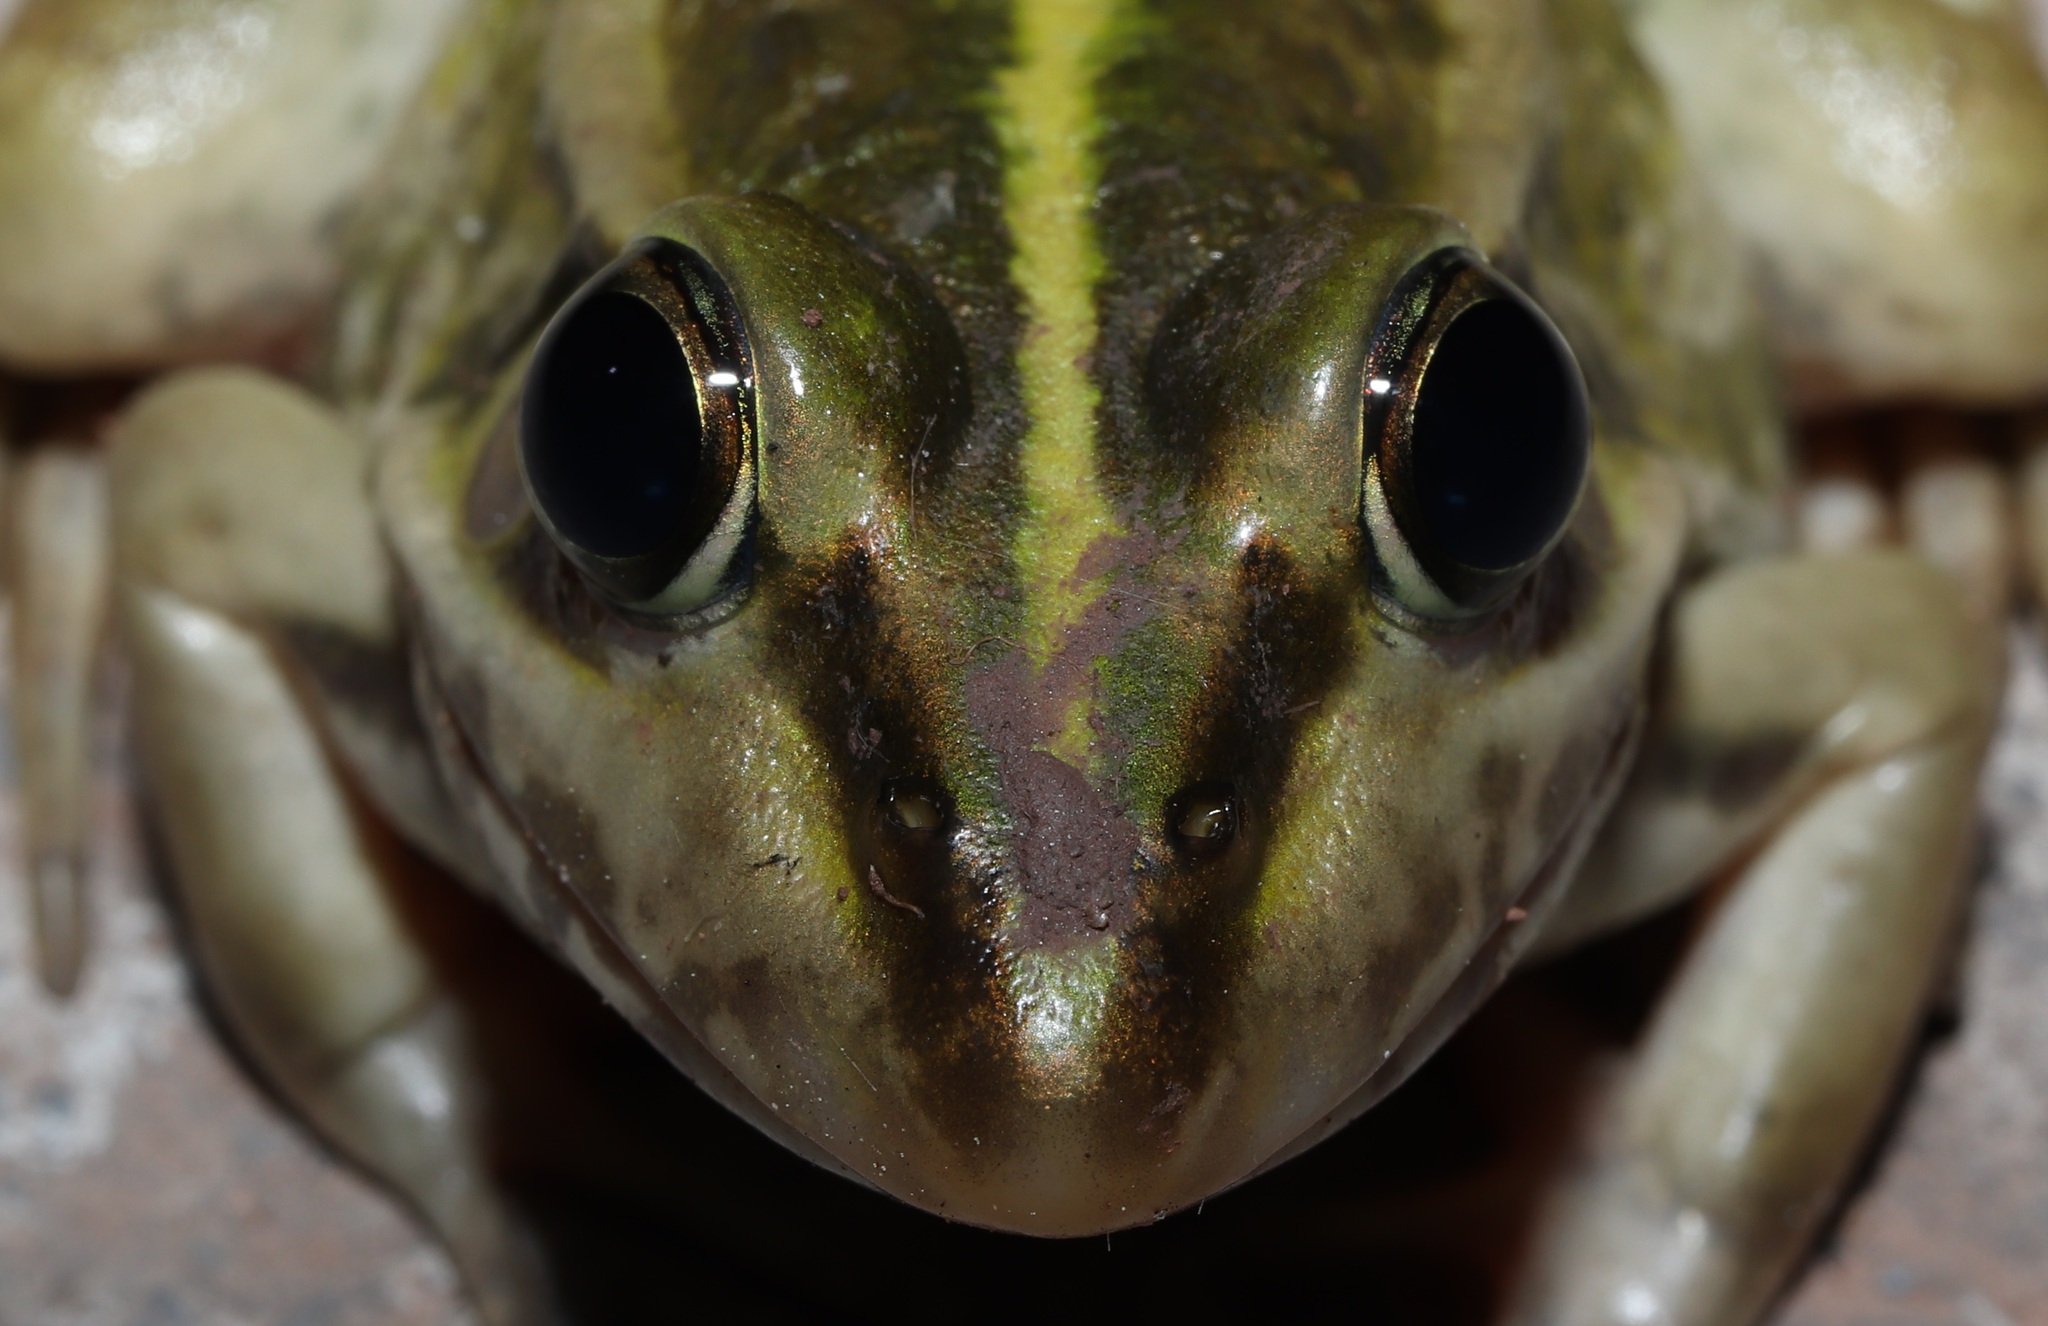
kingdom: Animalia
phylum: Chordata
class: Amphibia
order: Anura
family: Ranidae
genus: Pelophylax
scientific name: Pelophylax nigromaculatus
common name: Black-spotted pond frog
